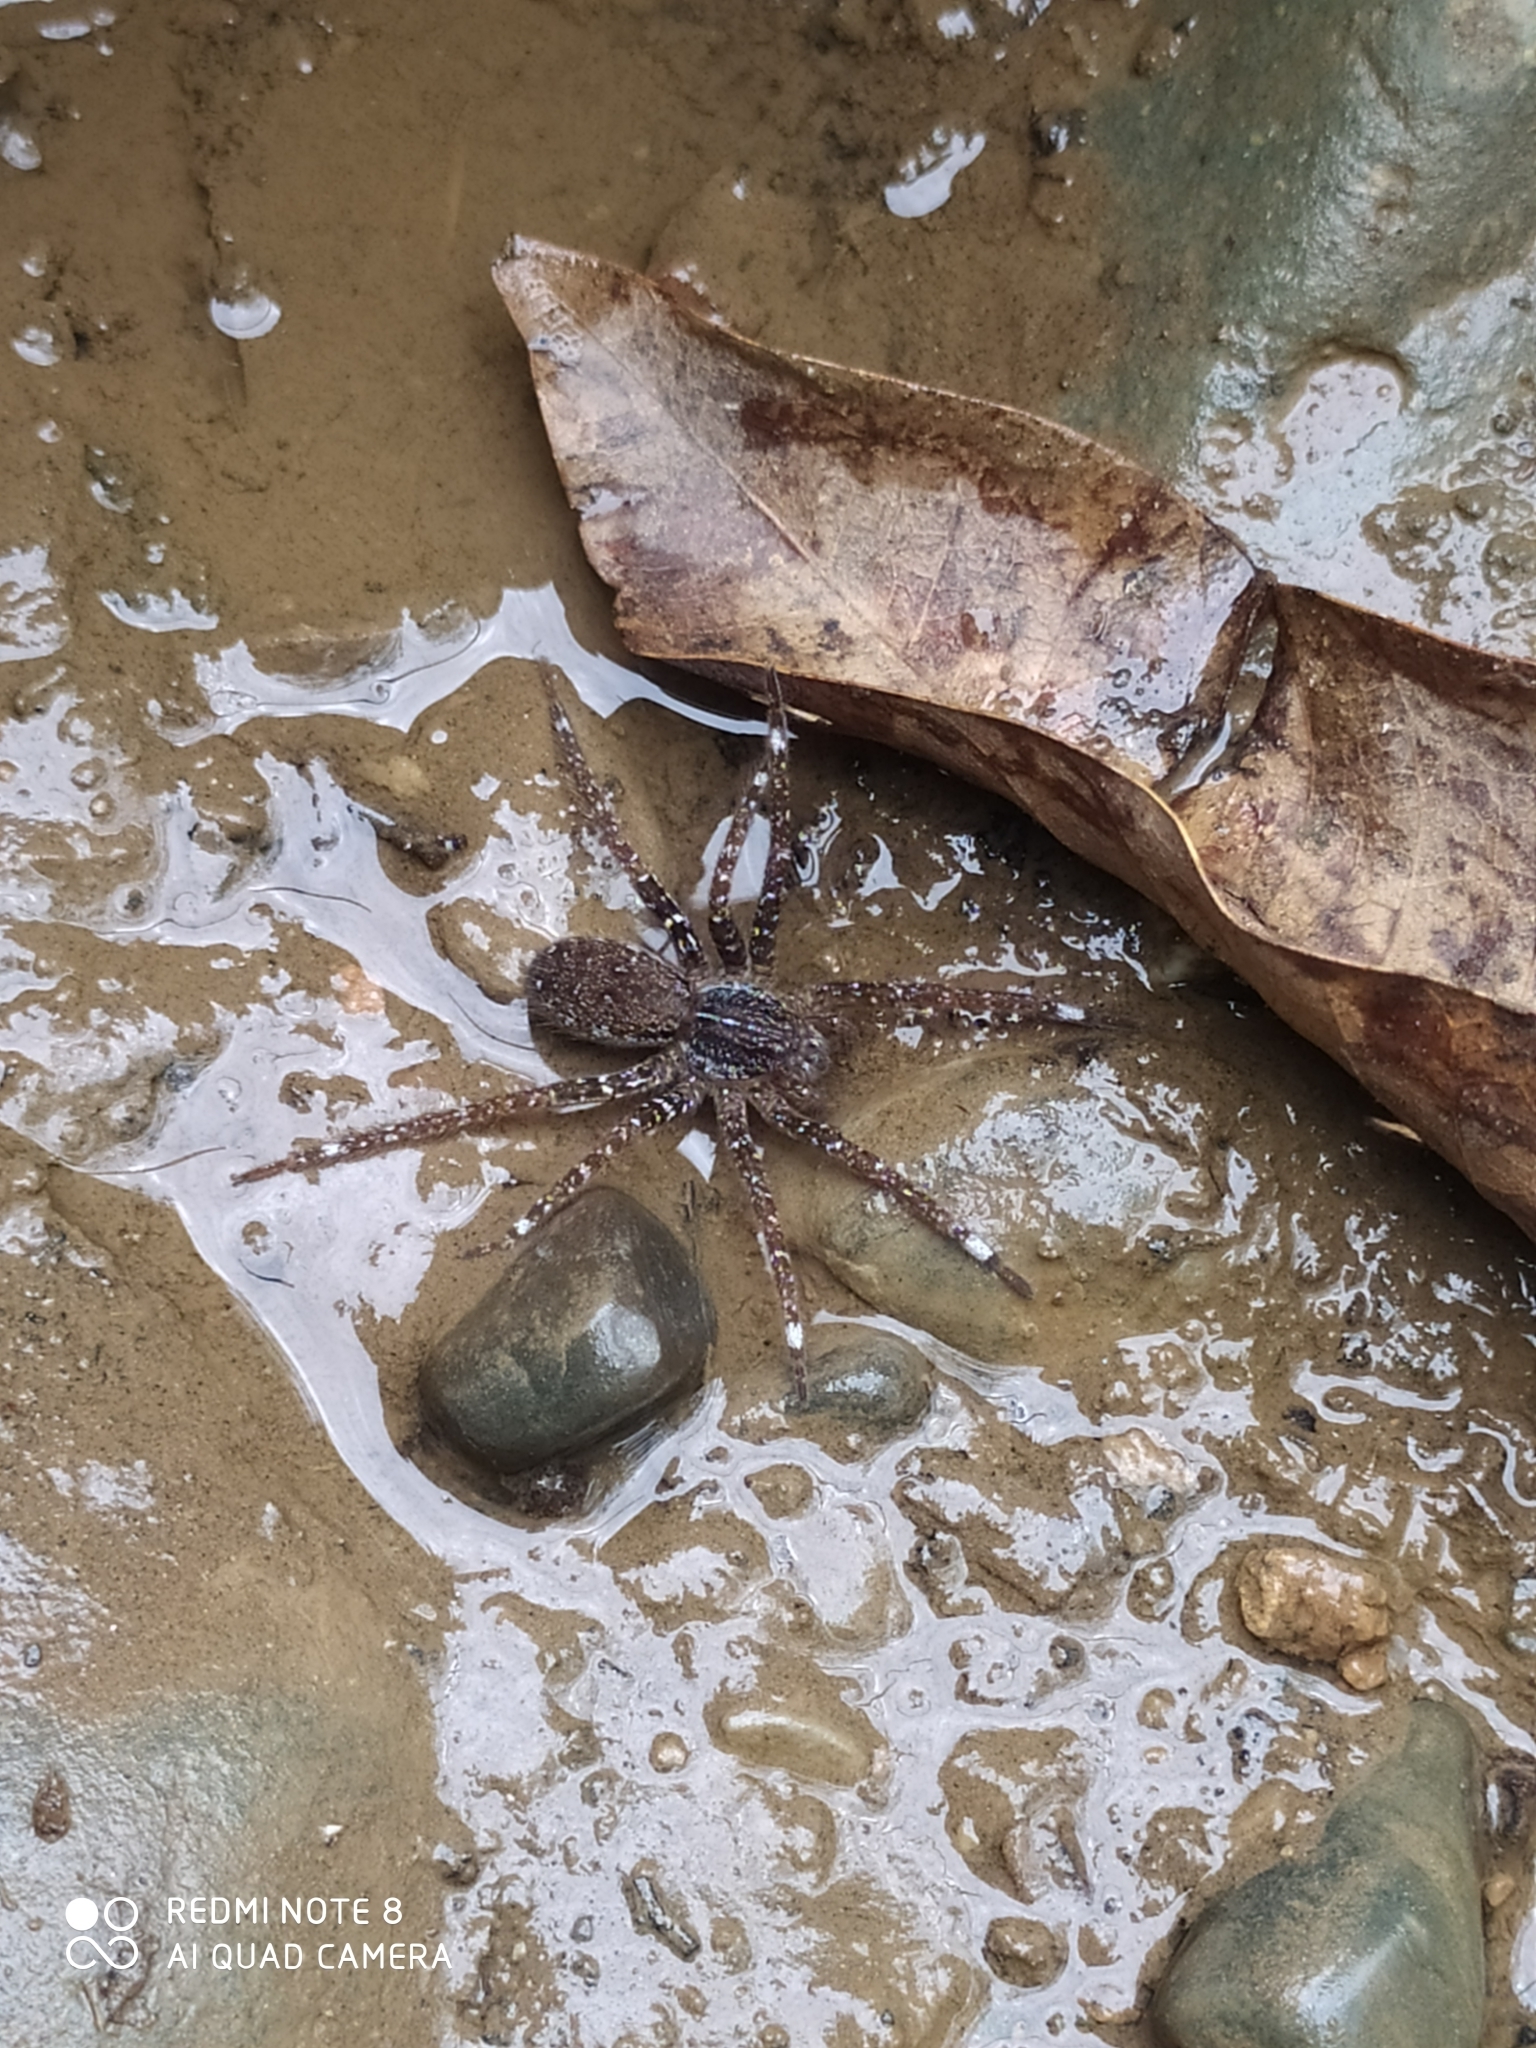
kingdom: Animalia
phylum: Arthropoda
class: Arachnida
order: Araneae
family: Ctenidae
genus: Ancylometes
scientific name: Ancylometes bogotensis
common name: Wandering spiders
